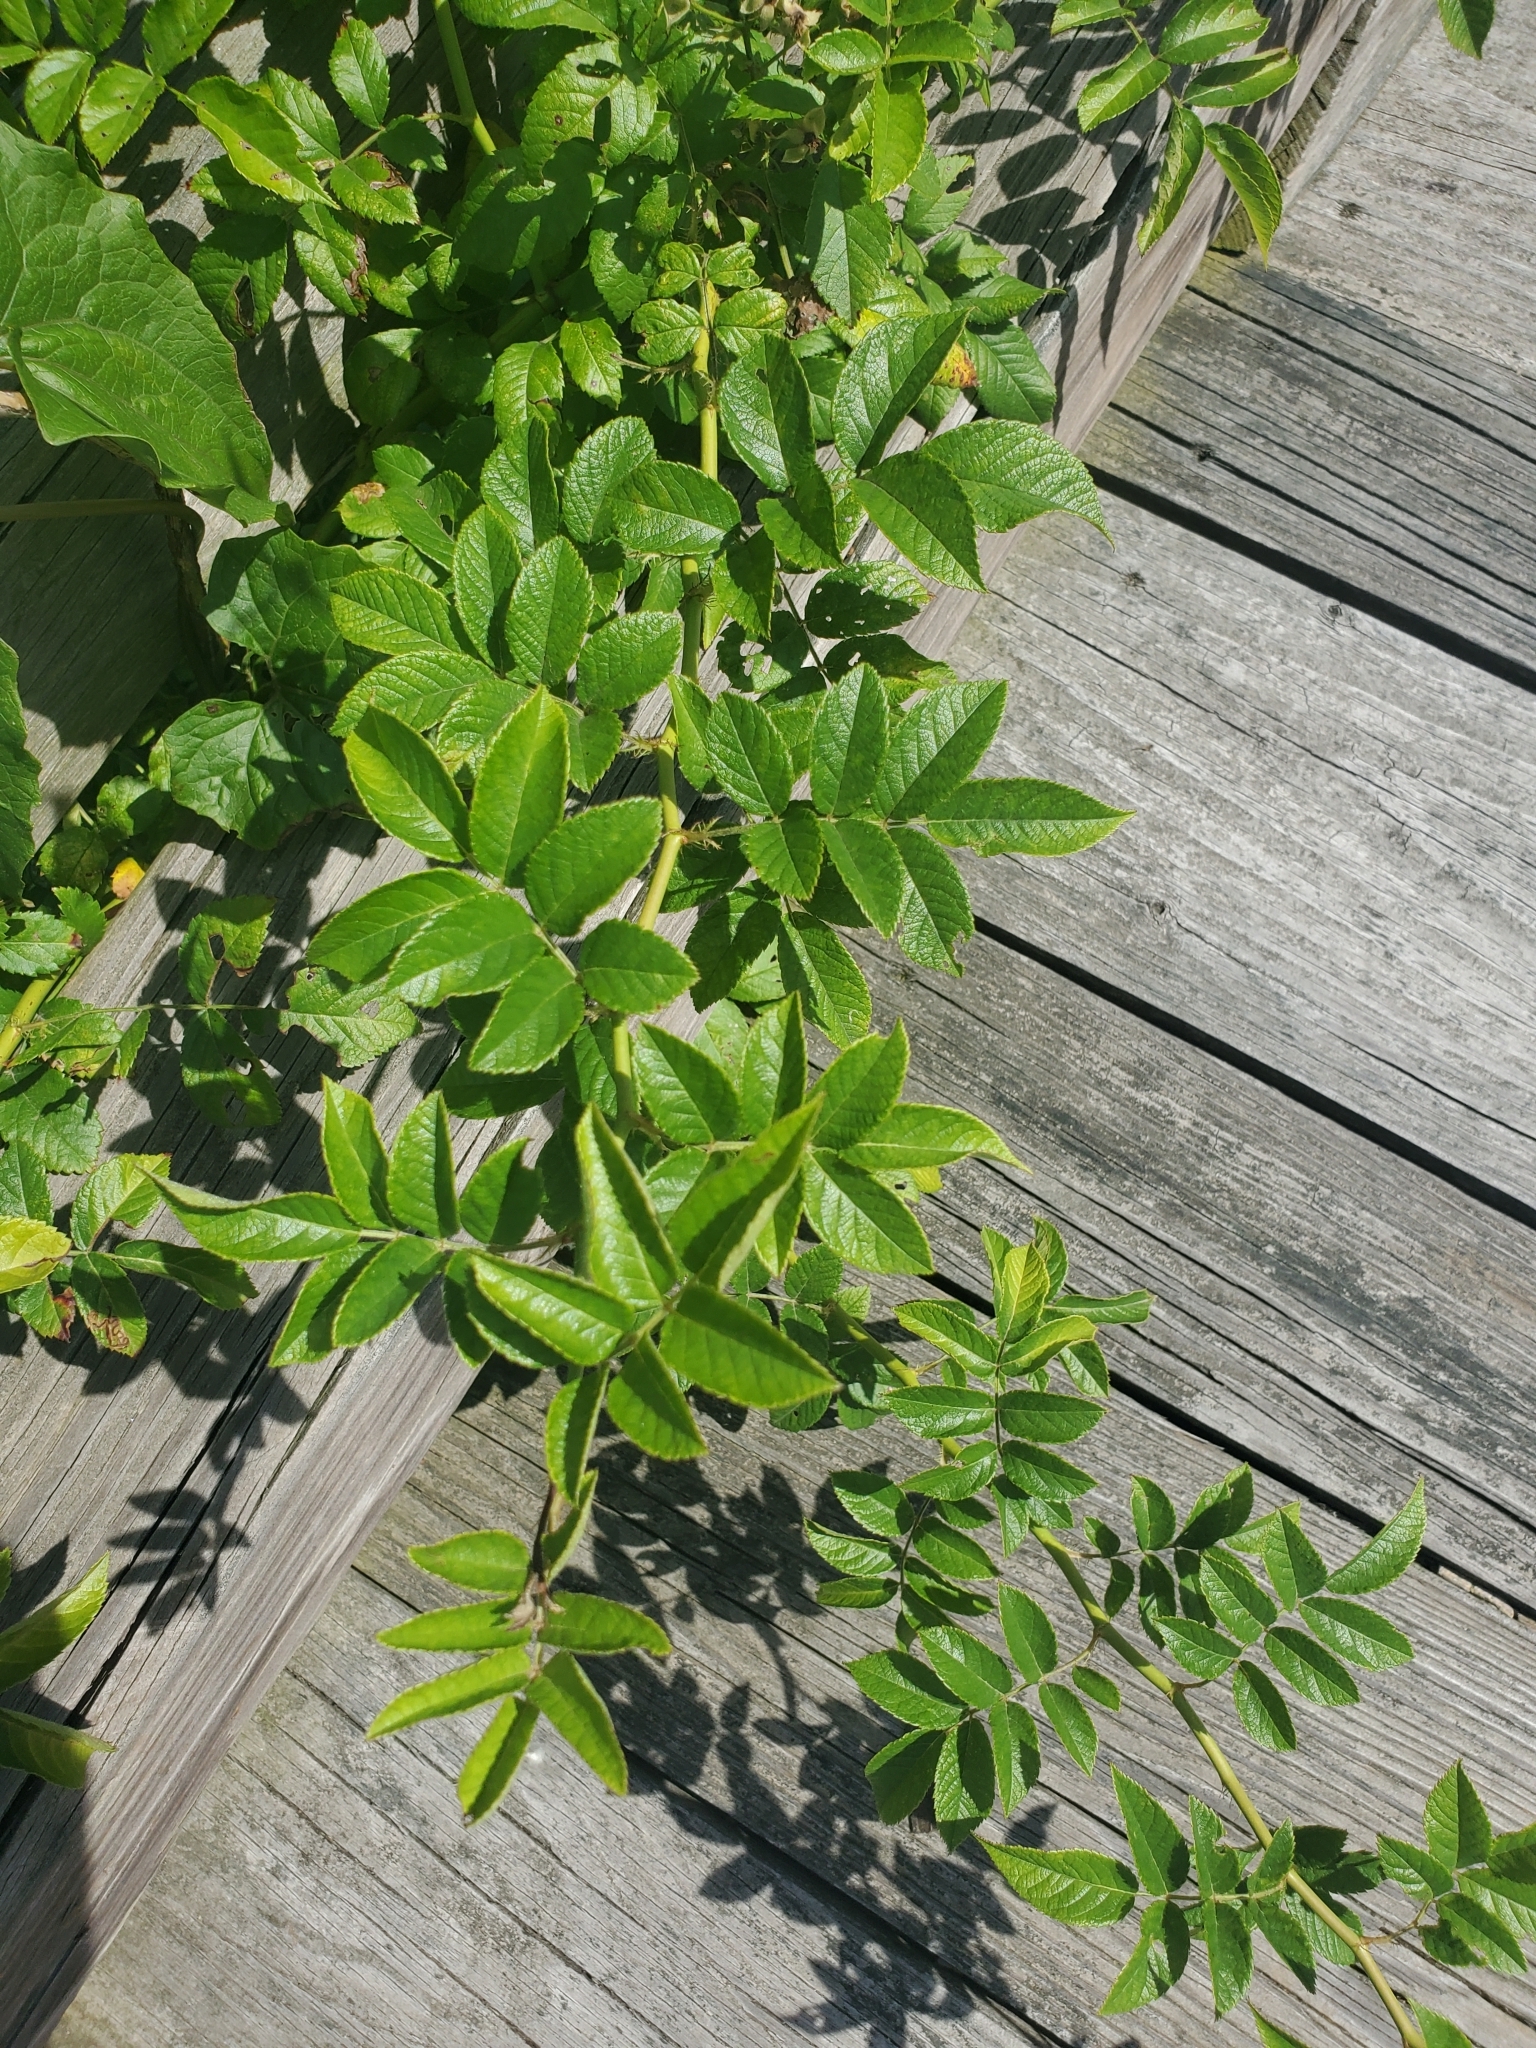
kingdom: Plantae
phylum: Tracheophyta
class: Magnoliopsida
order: Rosales
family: Rosaceae
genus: Rosa
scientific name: Rosa multiflora
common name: Multiflora rose
